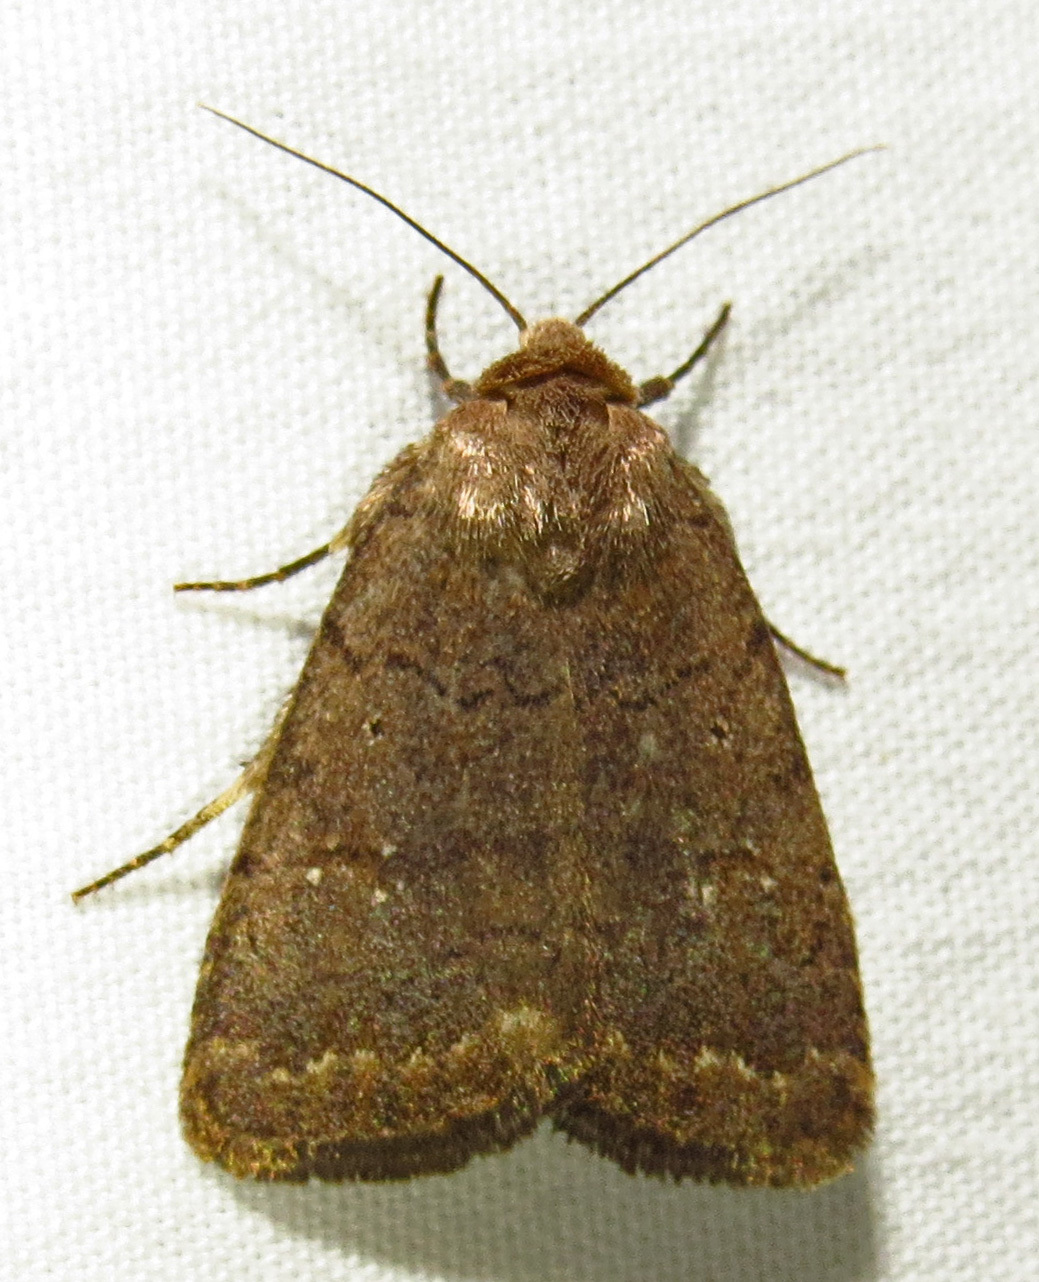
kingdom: Animalia
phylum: Arthropoda
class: Insecta
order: Lepidoptera
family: Noctuidae
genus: Athetis
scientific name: Athetis tarda
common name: Slowpoke moth
